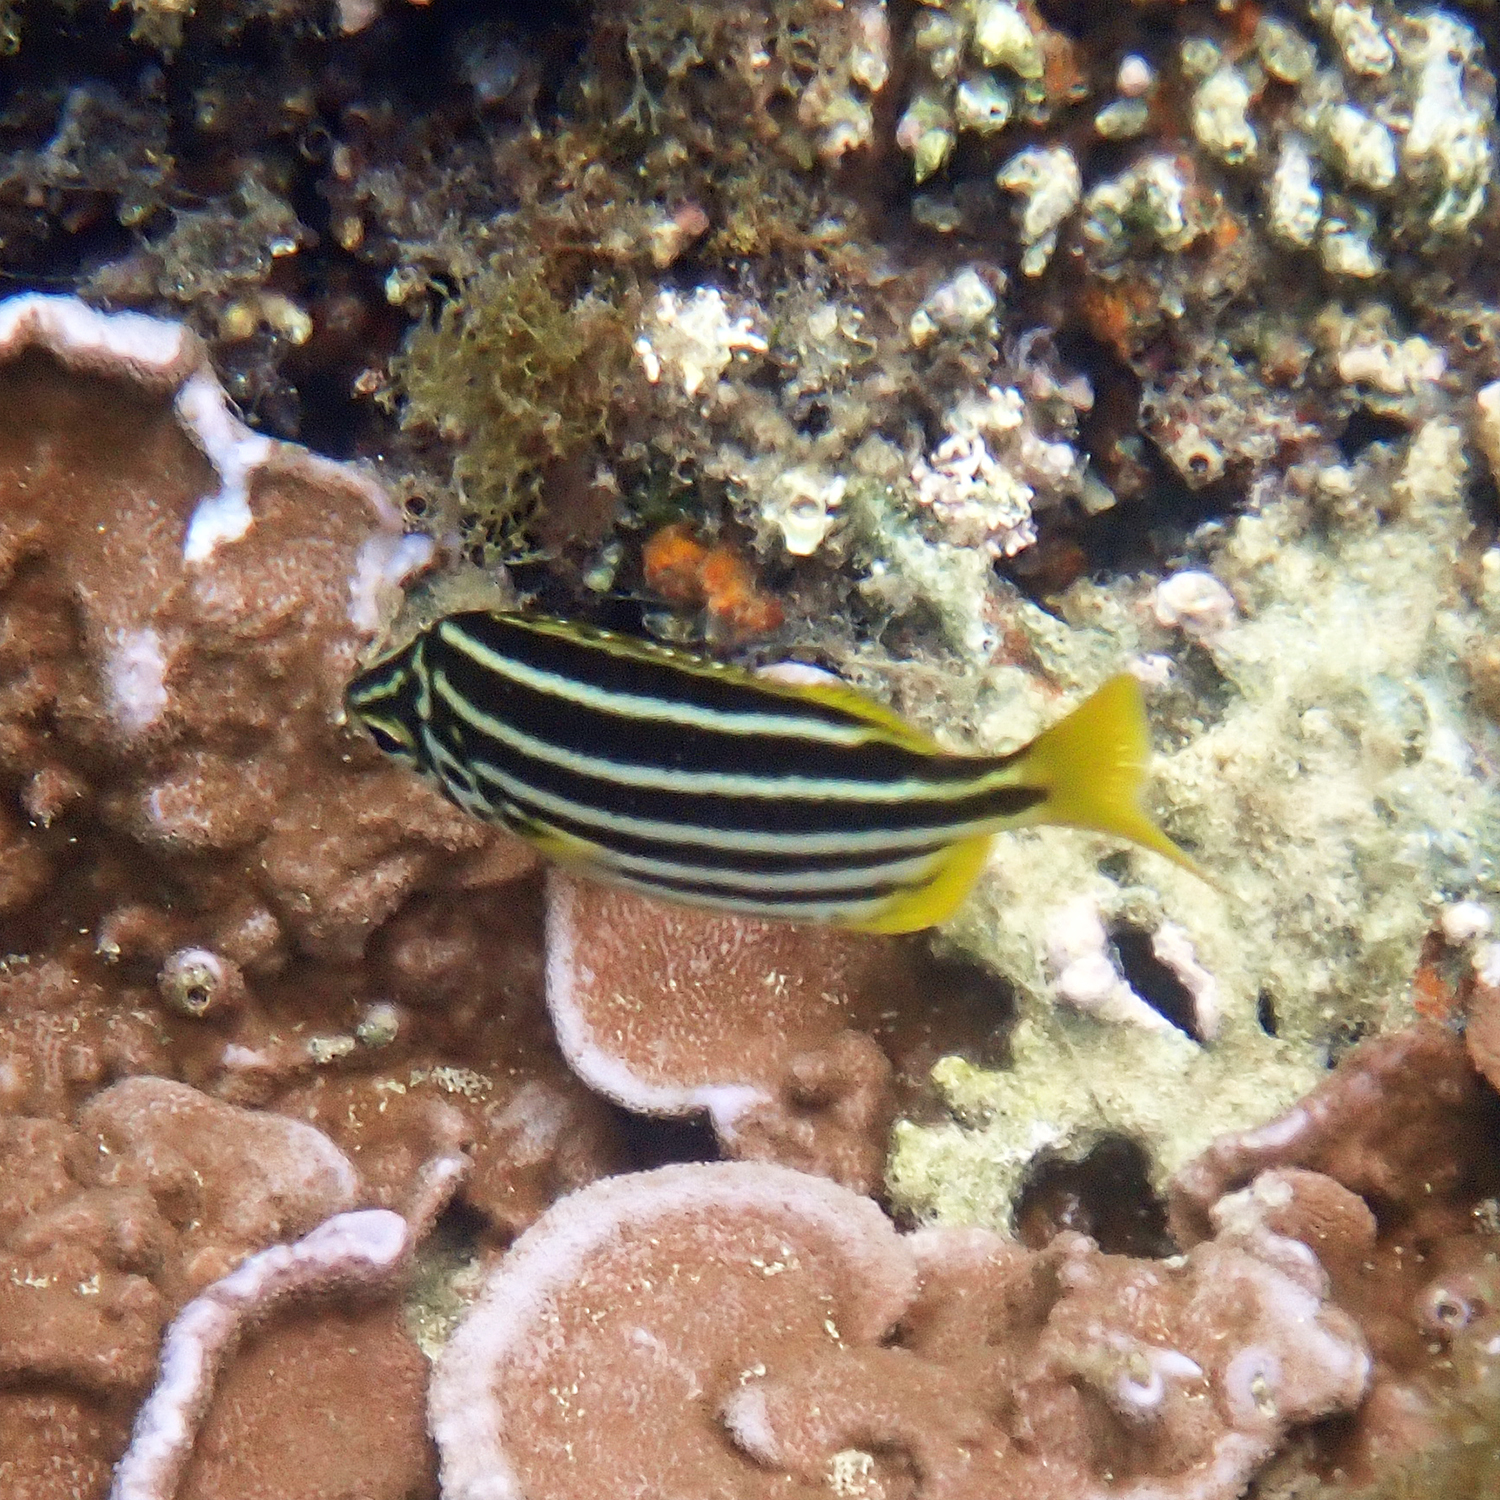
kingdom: Animalia
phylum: Chordata
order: Perciformes
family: Kyphosidae
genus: Atypichthys
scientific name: Atypichthys latus
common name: Mado
